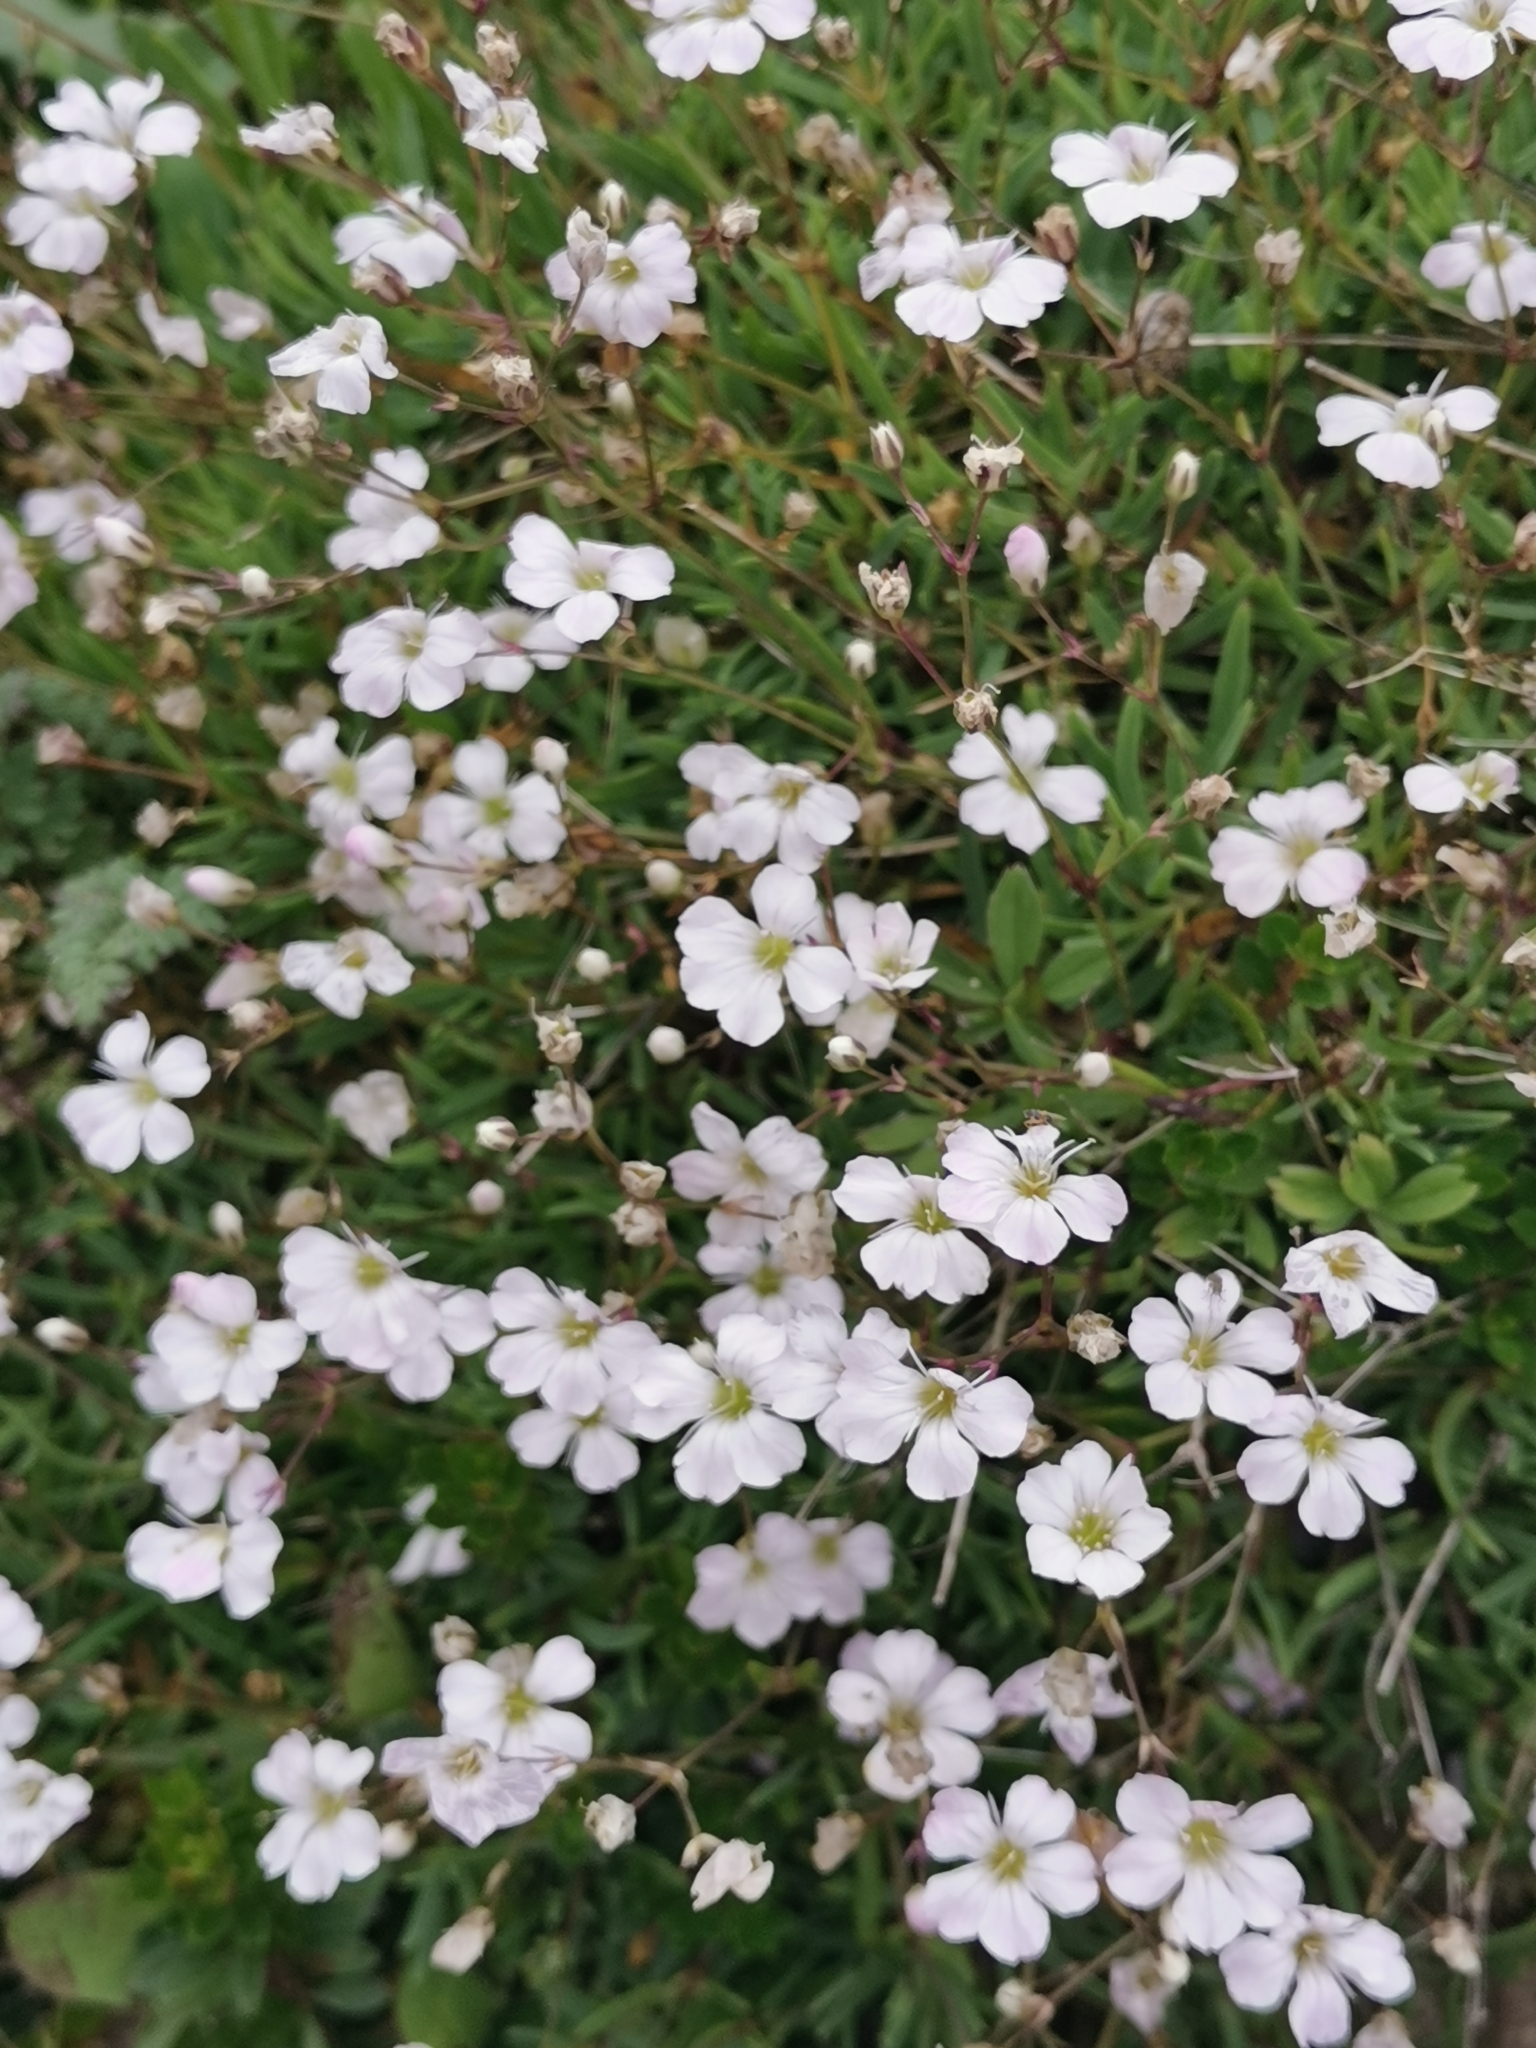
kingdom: Plantae
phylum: Tracheophyta
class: Magnoliopsida
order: Caryophyllales
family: Caryophyllaceae
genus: Gypsophila
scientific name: Gypsophila repens
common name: Creeping baby's-breath
